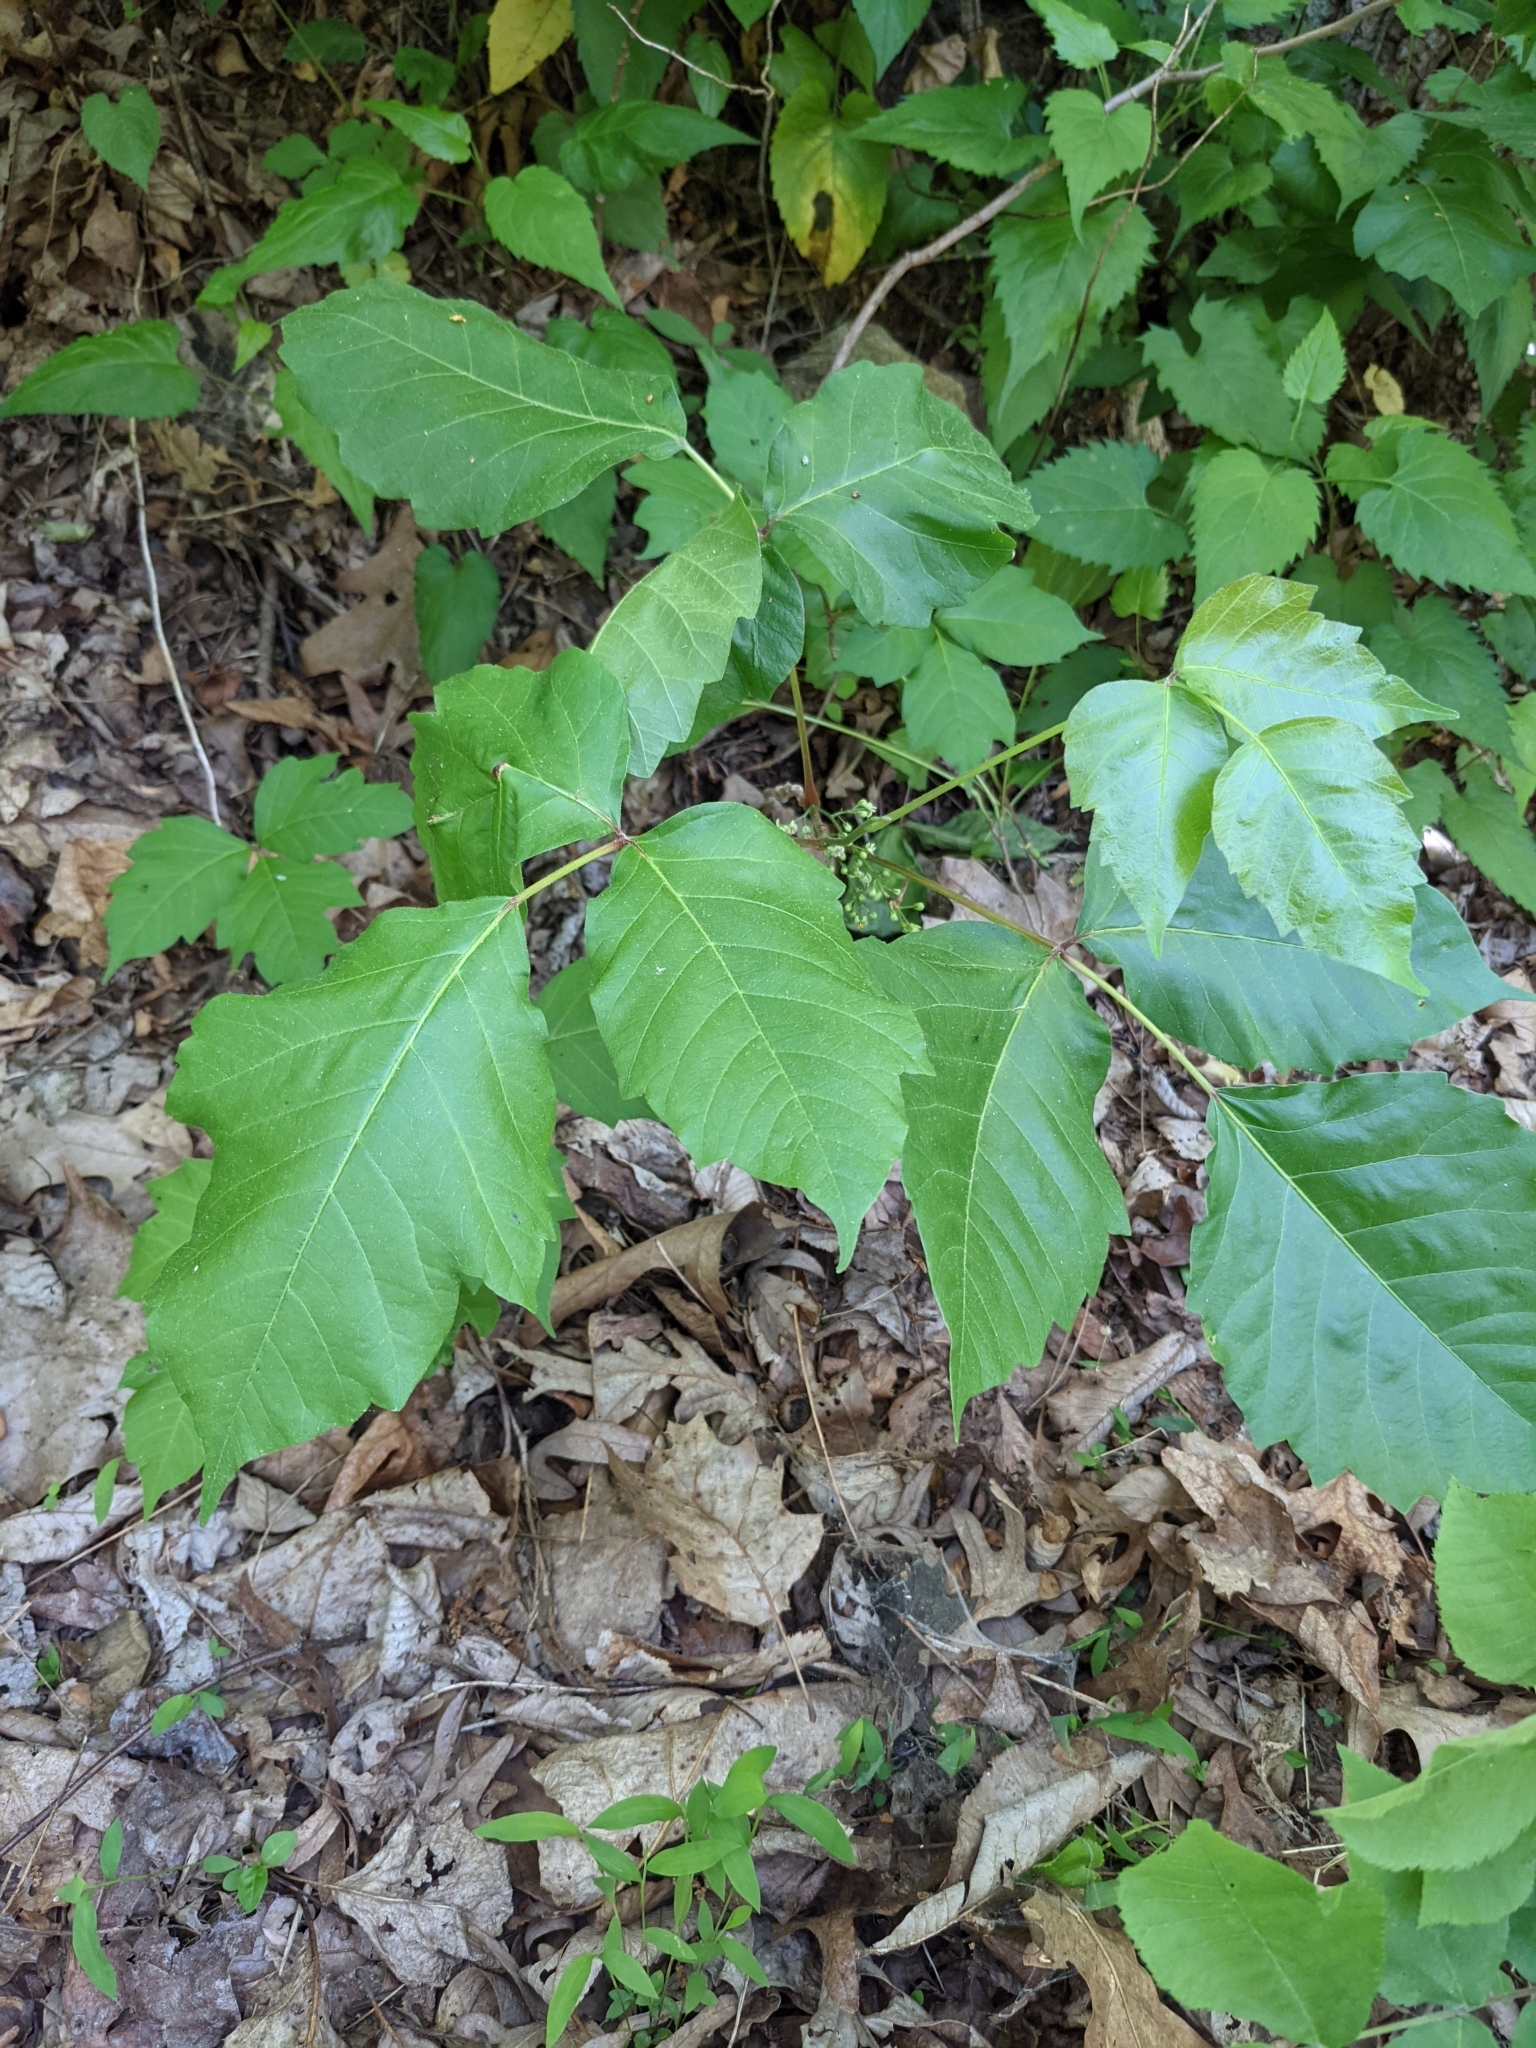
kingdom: Plantae
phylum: Tracheophyta
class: Magnoliopsida
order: Sapindales
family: Anacardiaceae
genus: Toxicodendron
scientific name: Toxicodendron radicans
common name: Poison ivy
